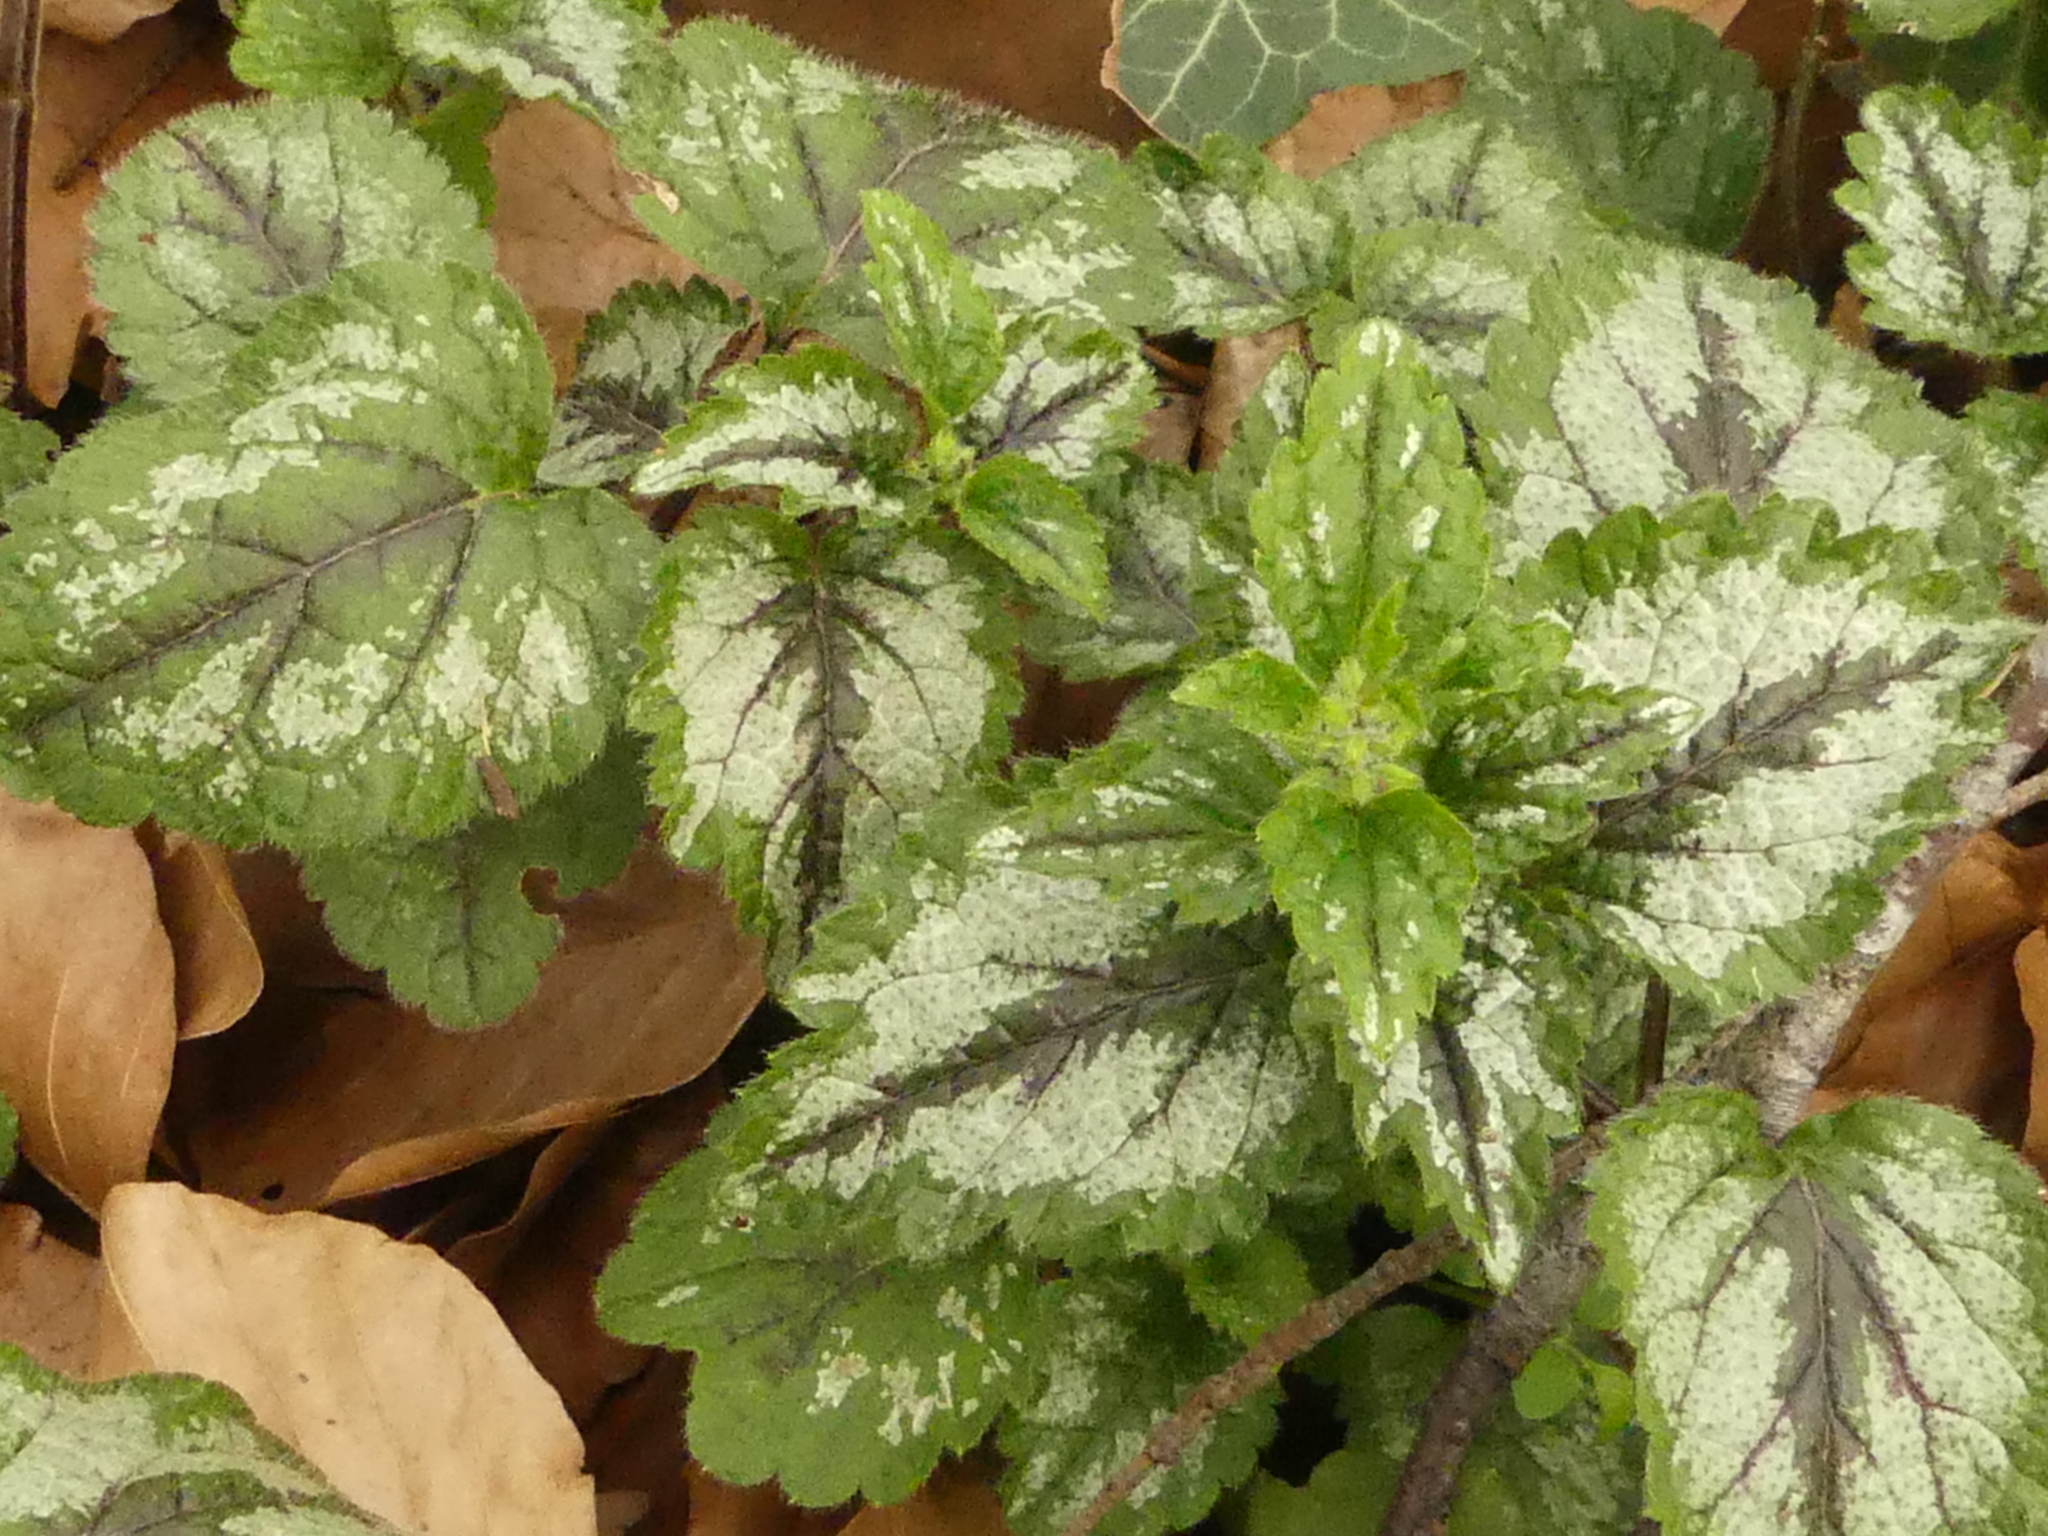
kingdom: Plantae
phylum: Tracheophyta
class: Magnoliopsida
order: Lamiales
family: Lamiaceae
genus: Lamium
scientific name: Lamium galeobdolon
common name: Yellow archangel
